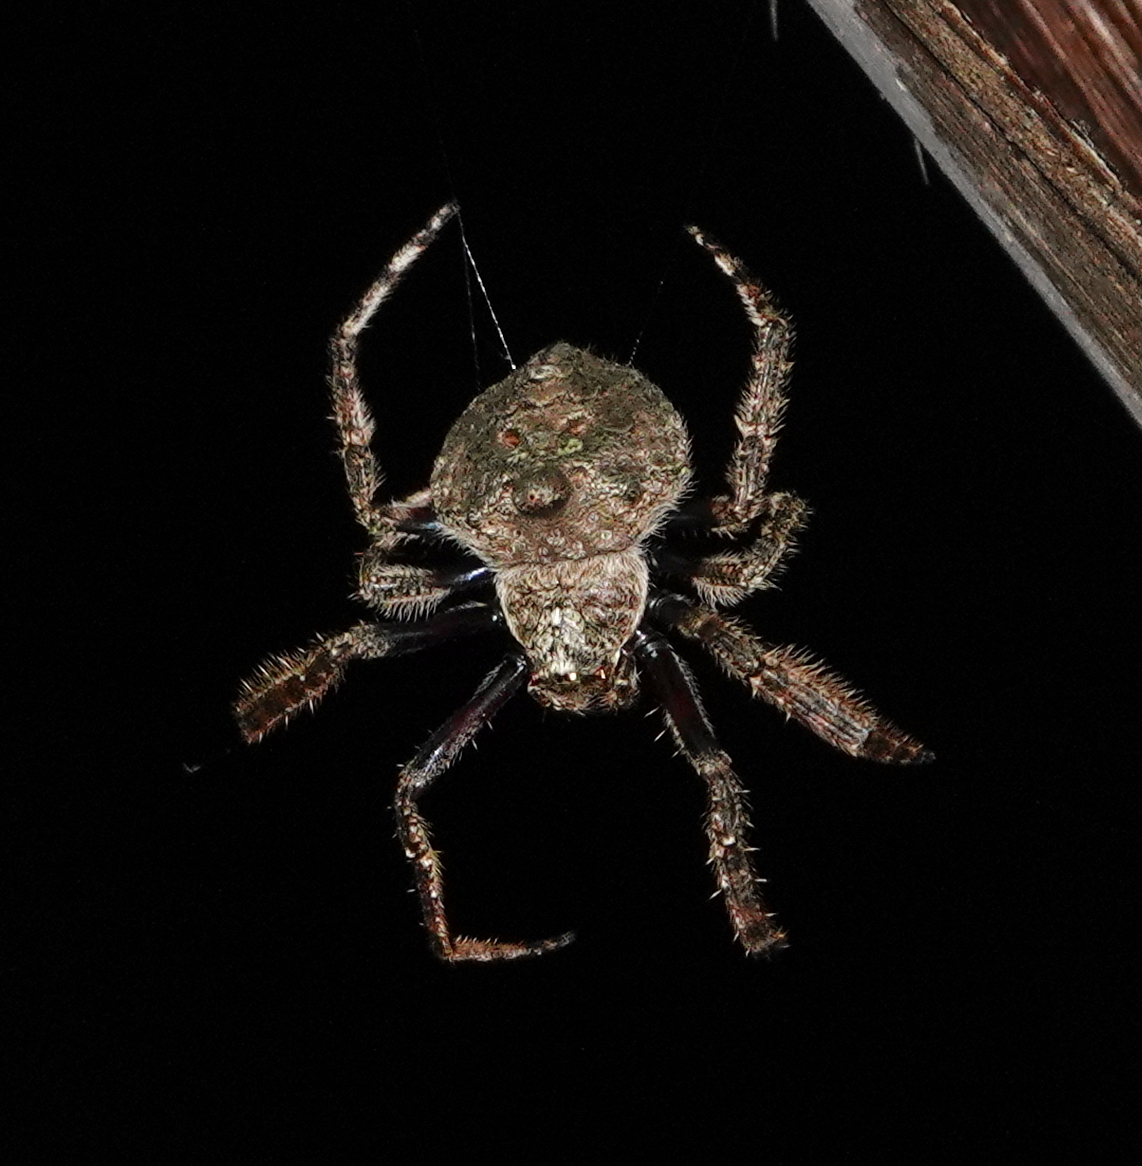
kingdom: Animalia
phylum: Arthropoda
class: Arachnida
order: Araneae
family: Araneidae
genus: Talthybia
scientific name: Talthybia depressa
